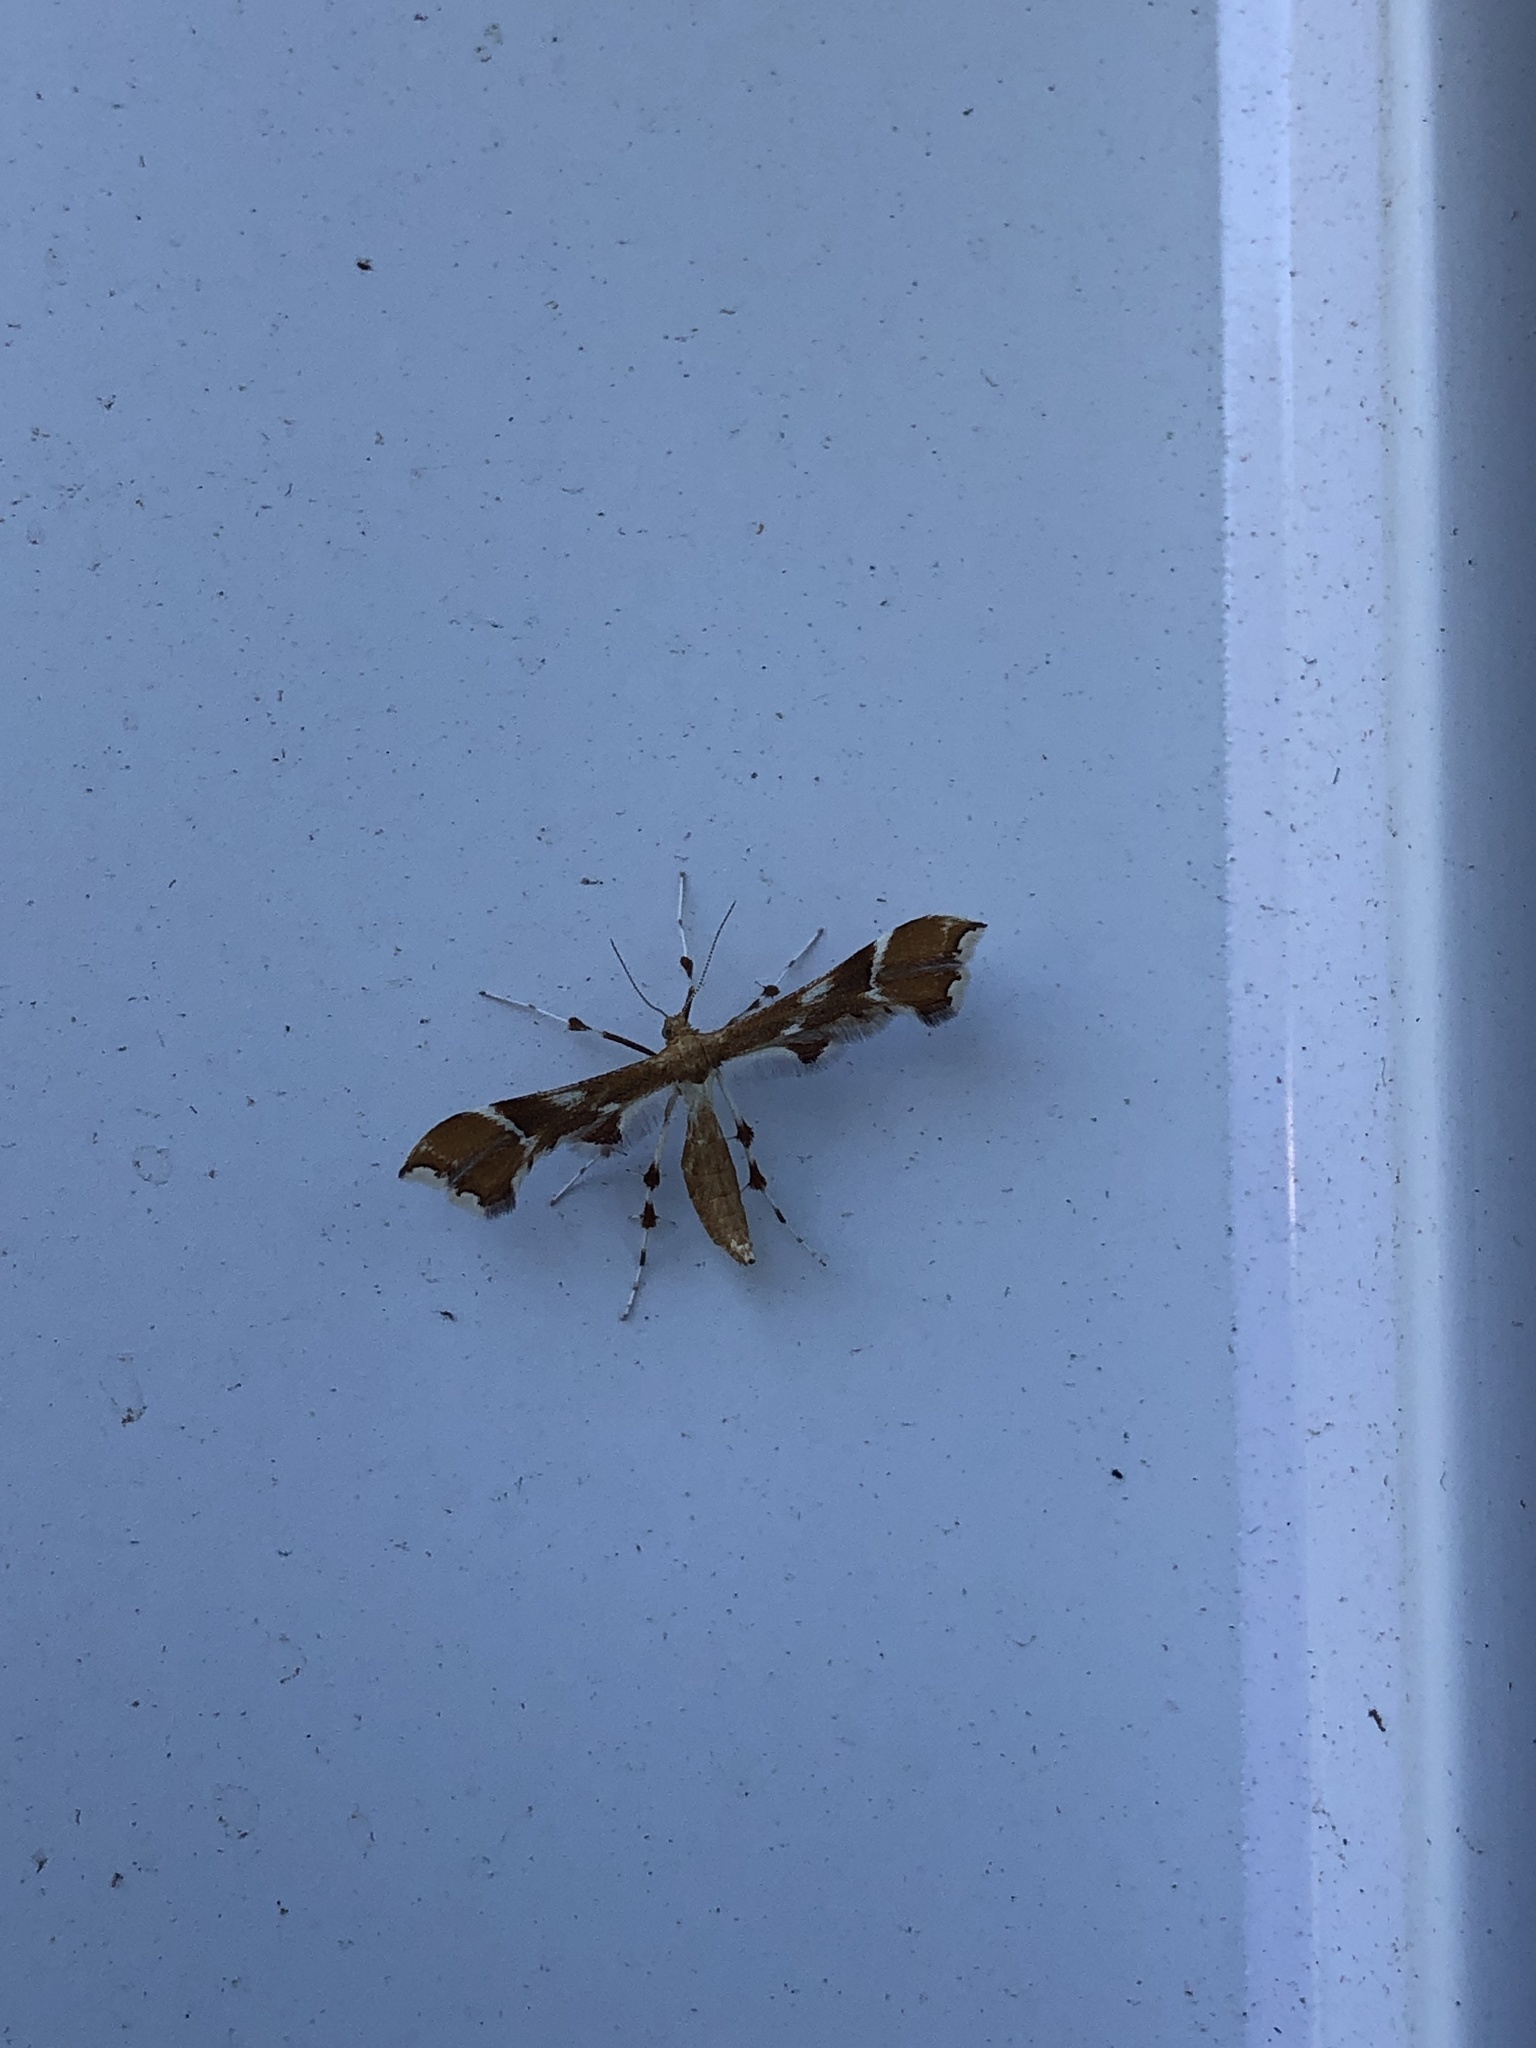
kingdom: Animalia
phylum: Arthropoda
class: Insecta
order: Lepidoptera
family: Pterophoridae
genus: Cnaemidophorus
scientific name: Cnaemidophorus rhododactyla
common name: Rose plume
